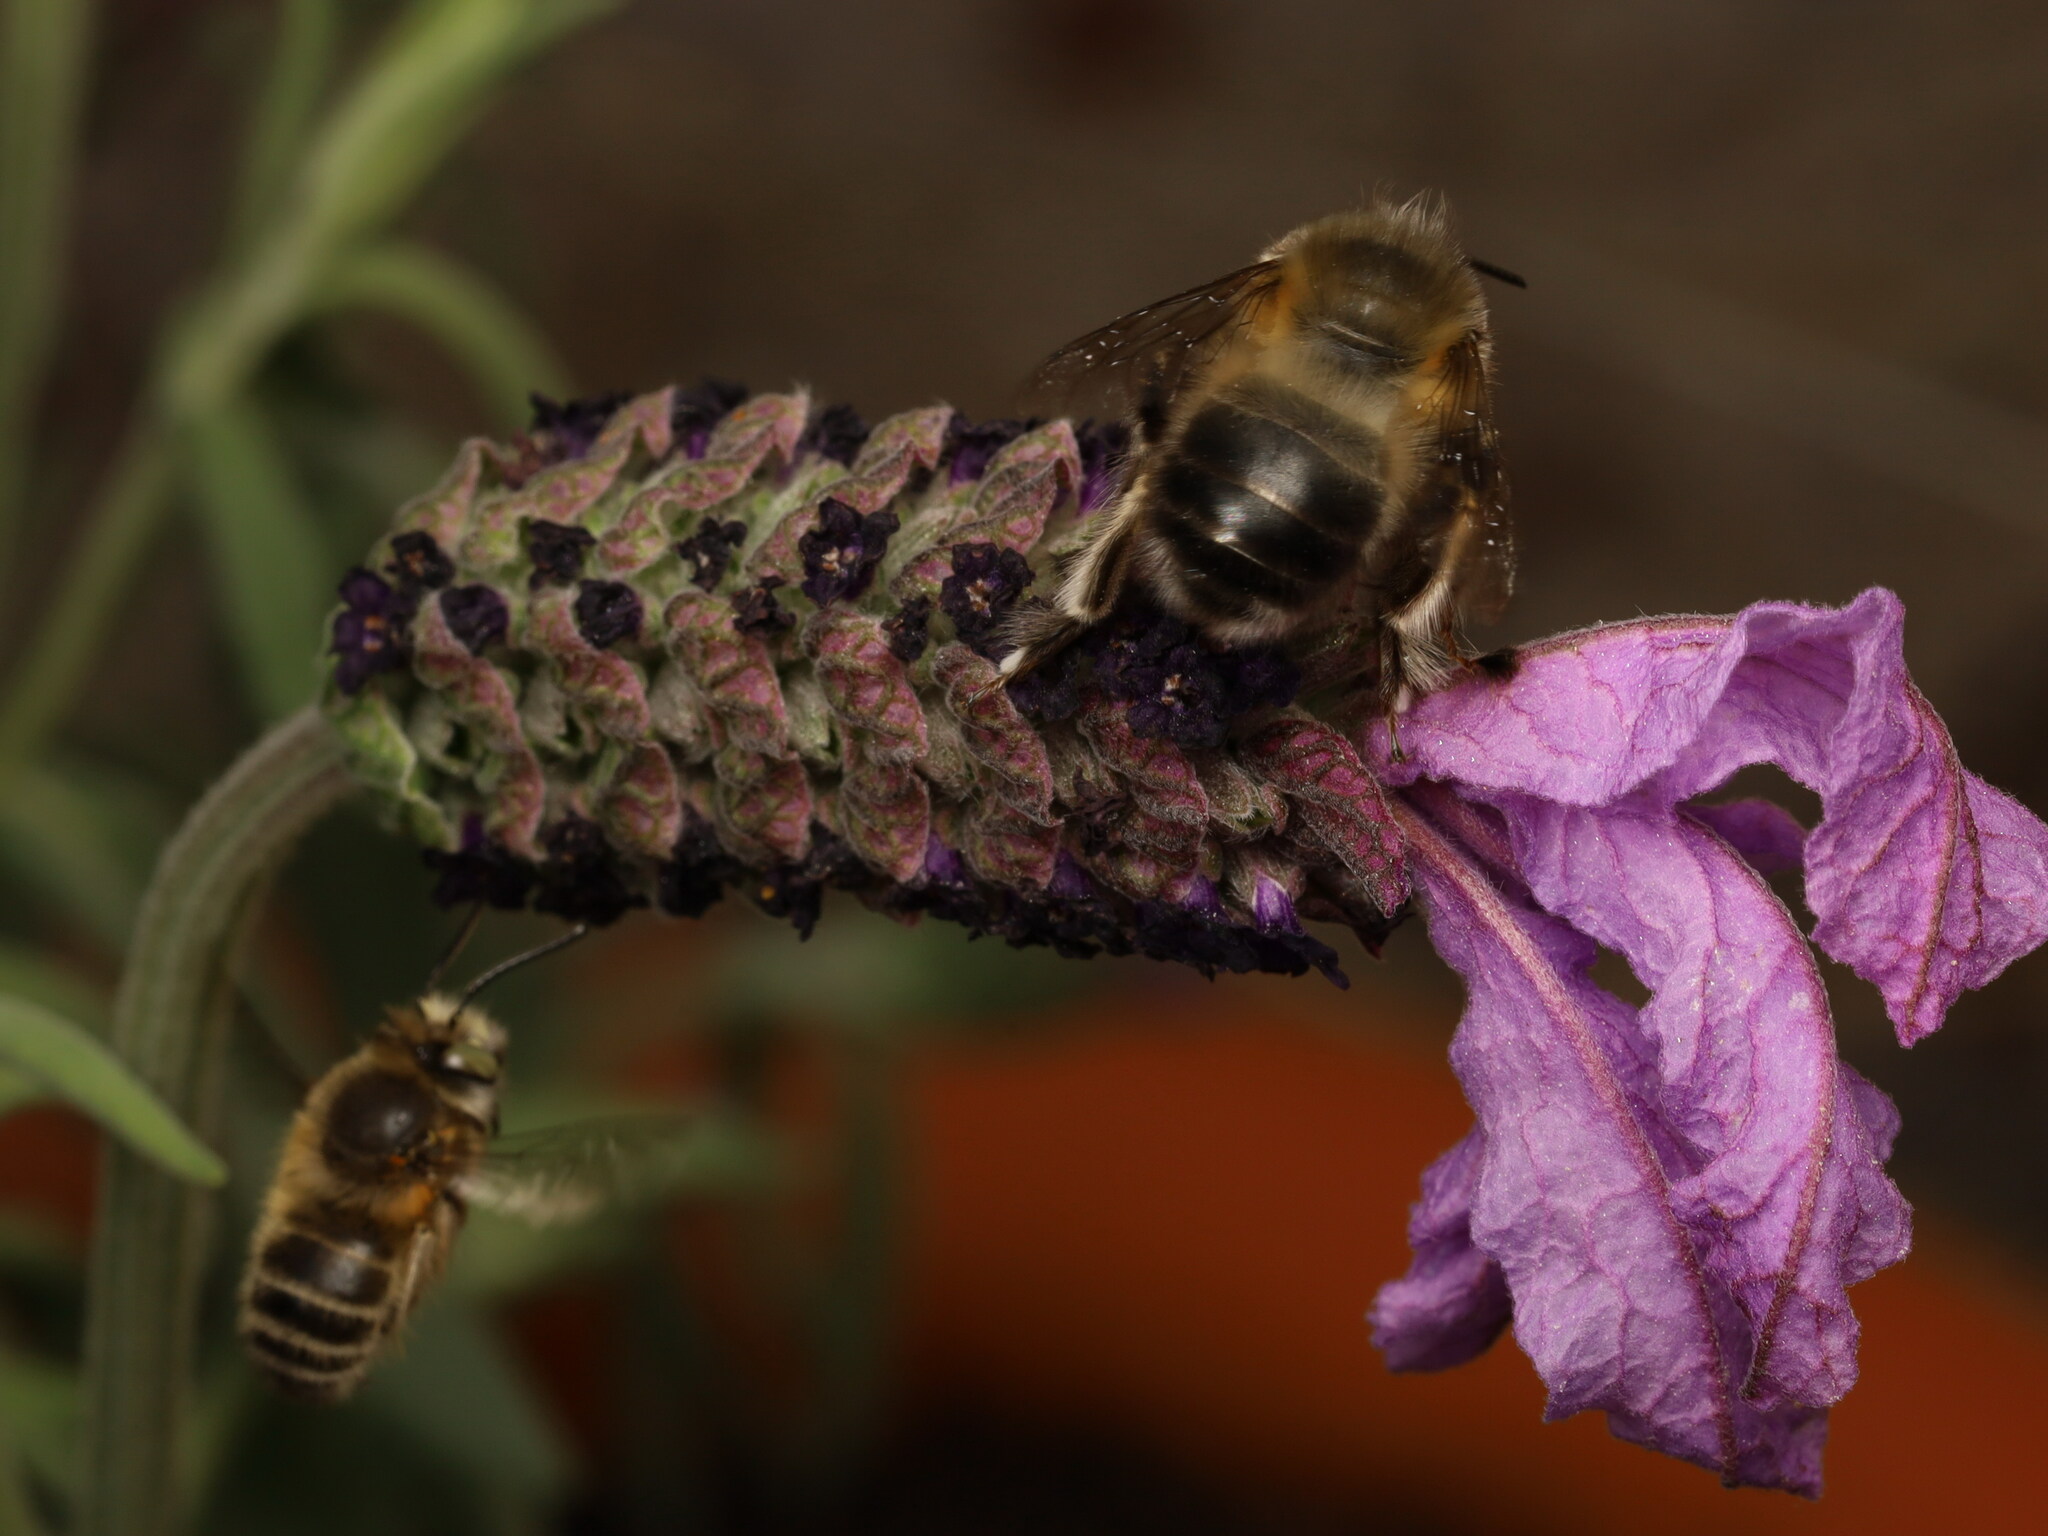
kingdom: Animalia
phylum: Arthropoda
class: Insecta
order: Hymenoptera
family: Apidae
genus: Anthophora
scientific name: Anthophora crinipes
